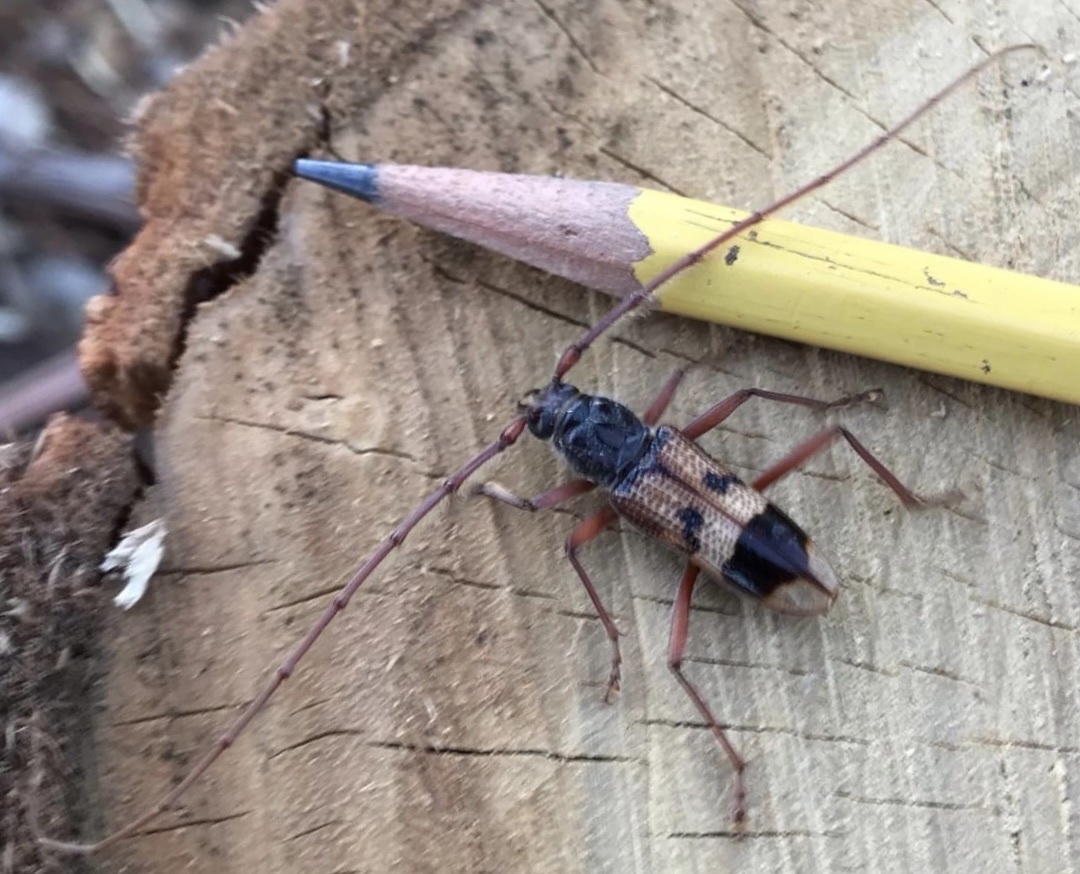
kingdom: Animalia
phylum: Arthropoda
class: Insecta
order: Coleoptera
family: Cerambycidae
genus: Phoracantha
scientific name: Phoracantha recurva
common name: Eucalyptus longhorned borer
